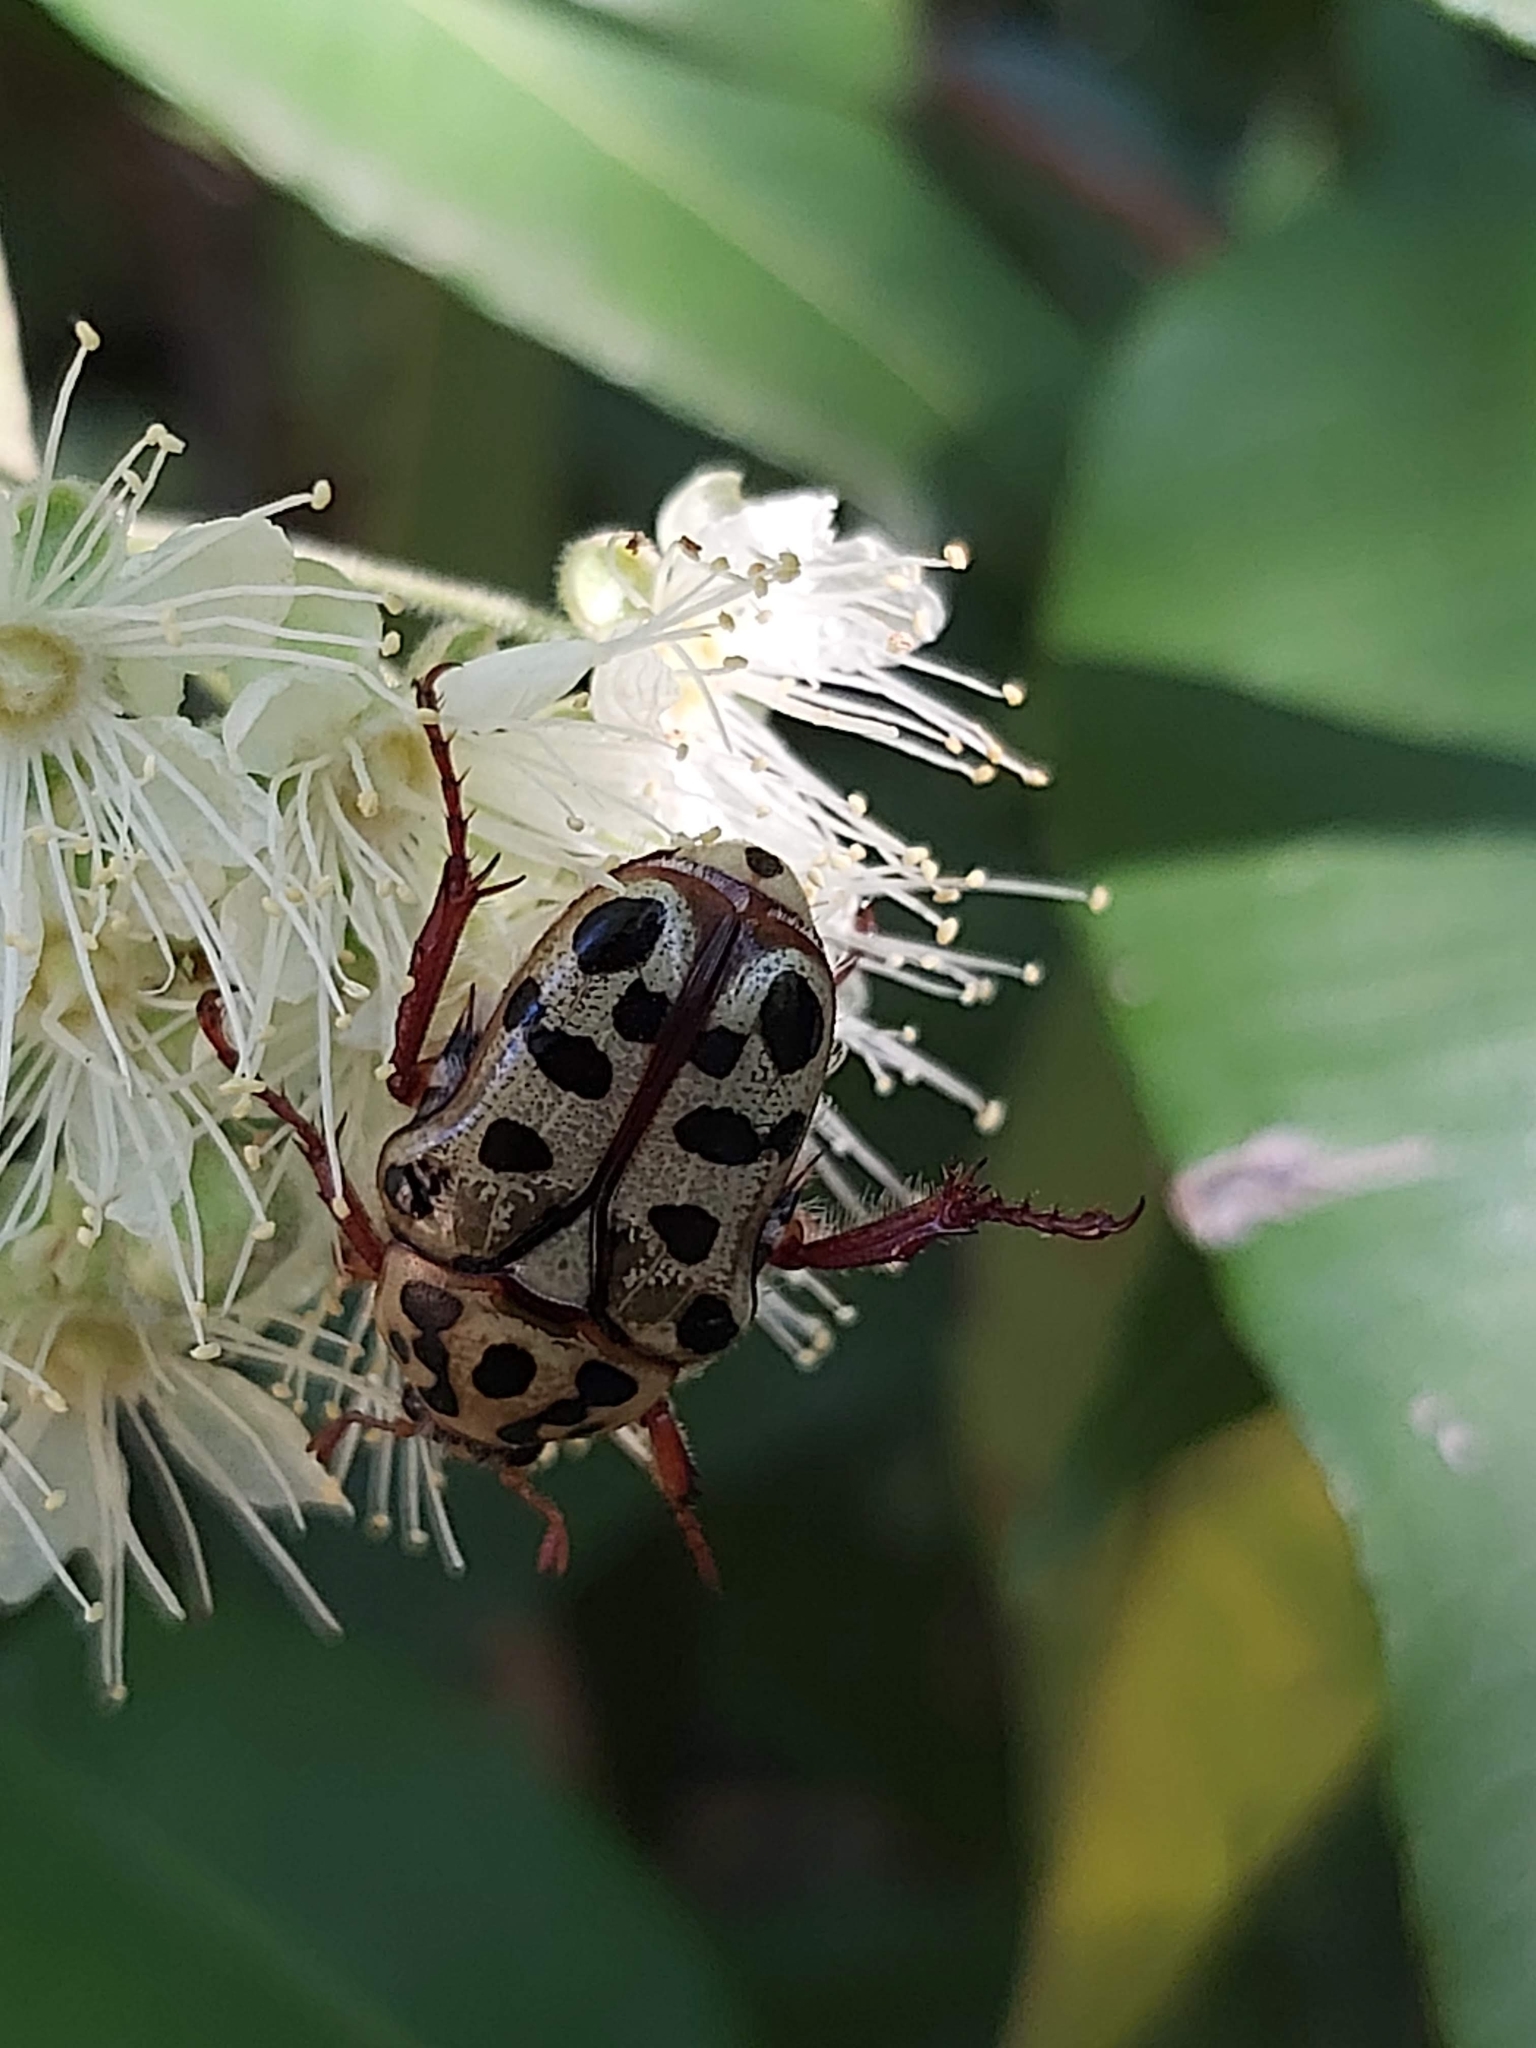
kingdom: Animalia
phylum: Arthropoda
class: Insecta
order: Coleoptera
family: Scarabaeidae
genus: Neorrhina
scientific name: Neorrhina punctatum
